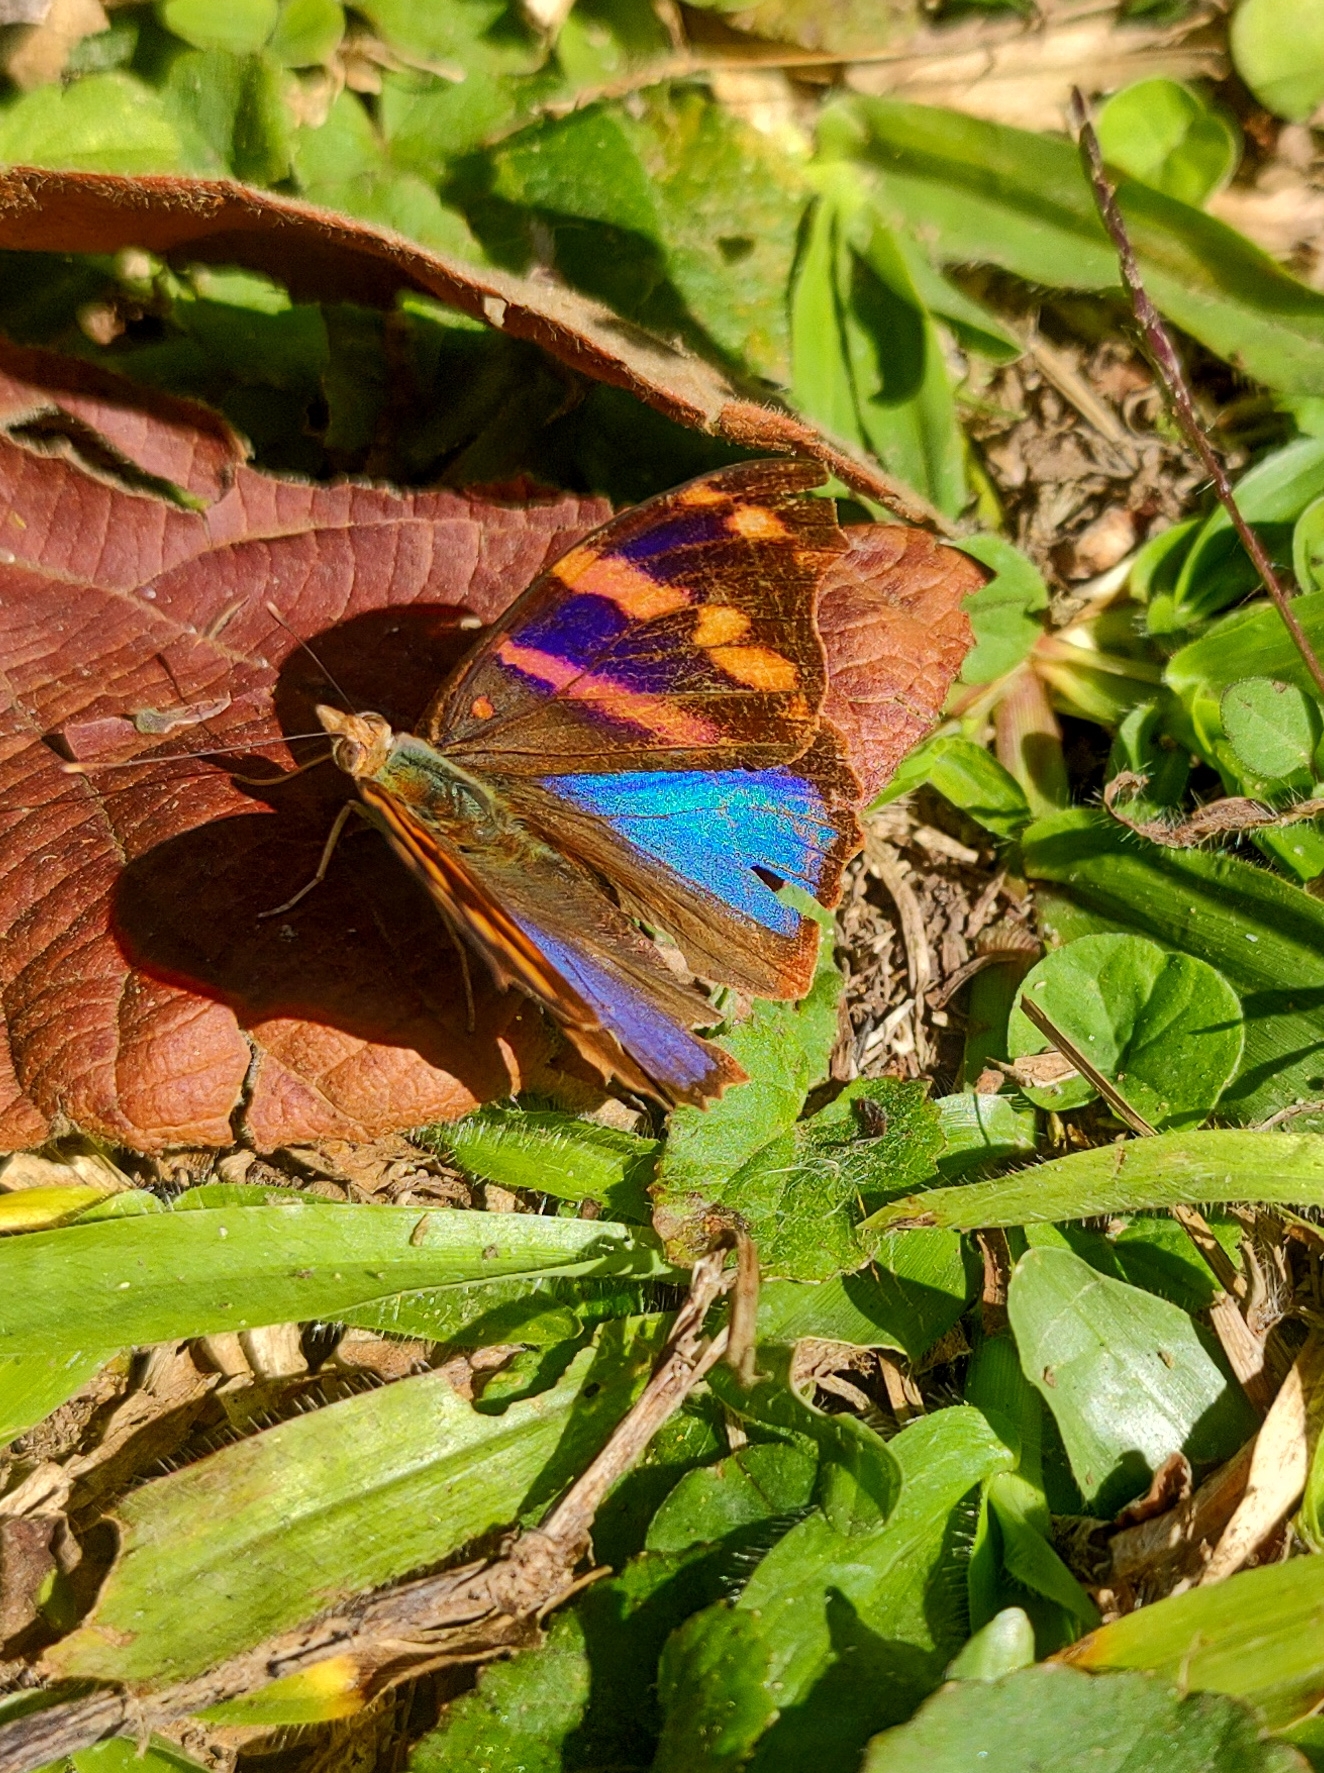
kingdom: Animalia
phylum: Arthropoda
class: Insecta
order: Lepidoptera
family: Nymphalidae
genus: Epiphile
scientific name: Epiphile orea
